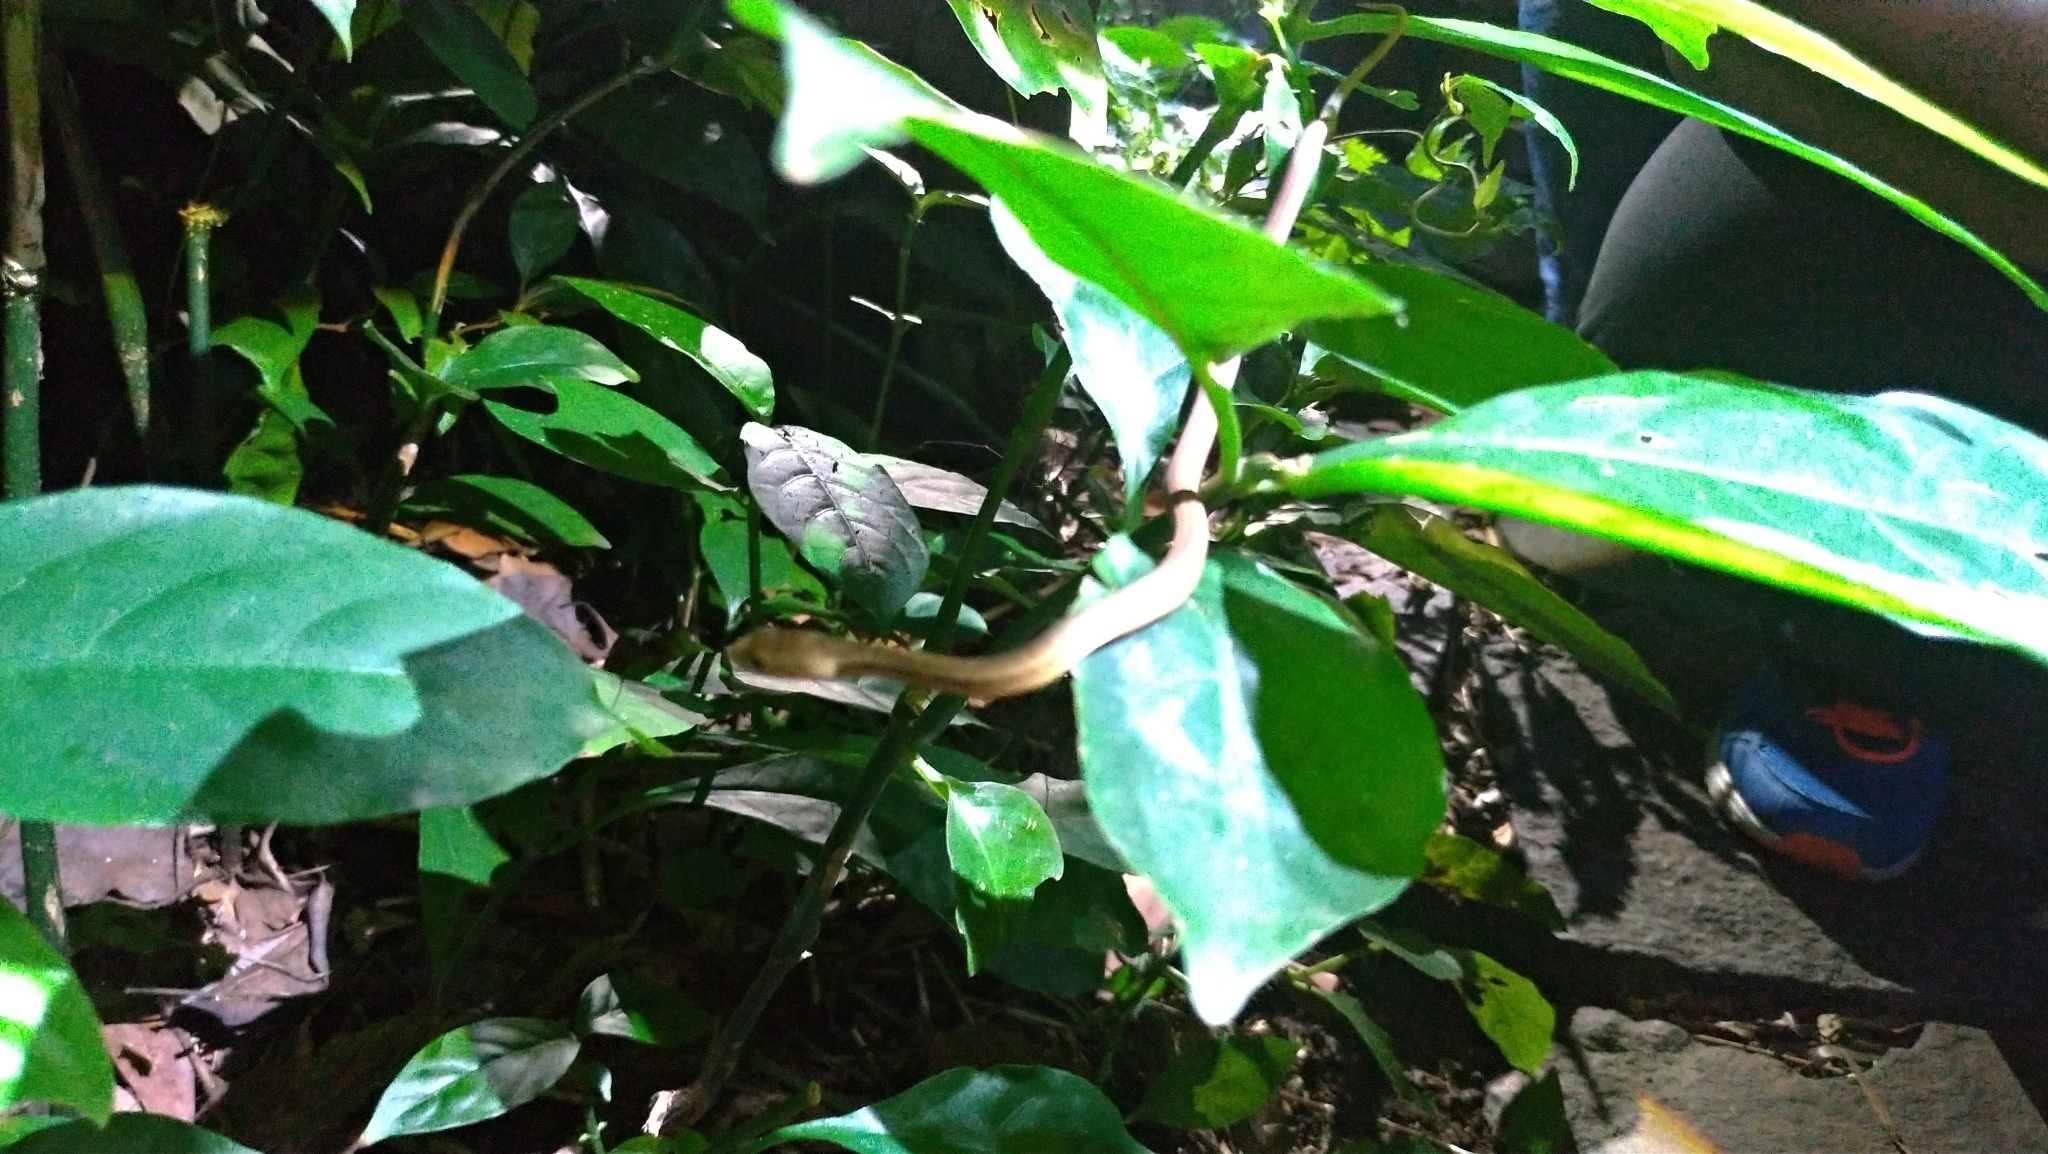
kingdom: Animalia
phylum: Chordata
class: Squamata
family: Pseudaspididae
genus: Psammodynastes
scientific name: Psammodynastes pulverulentus
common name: Common mock viper
